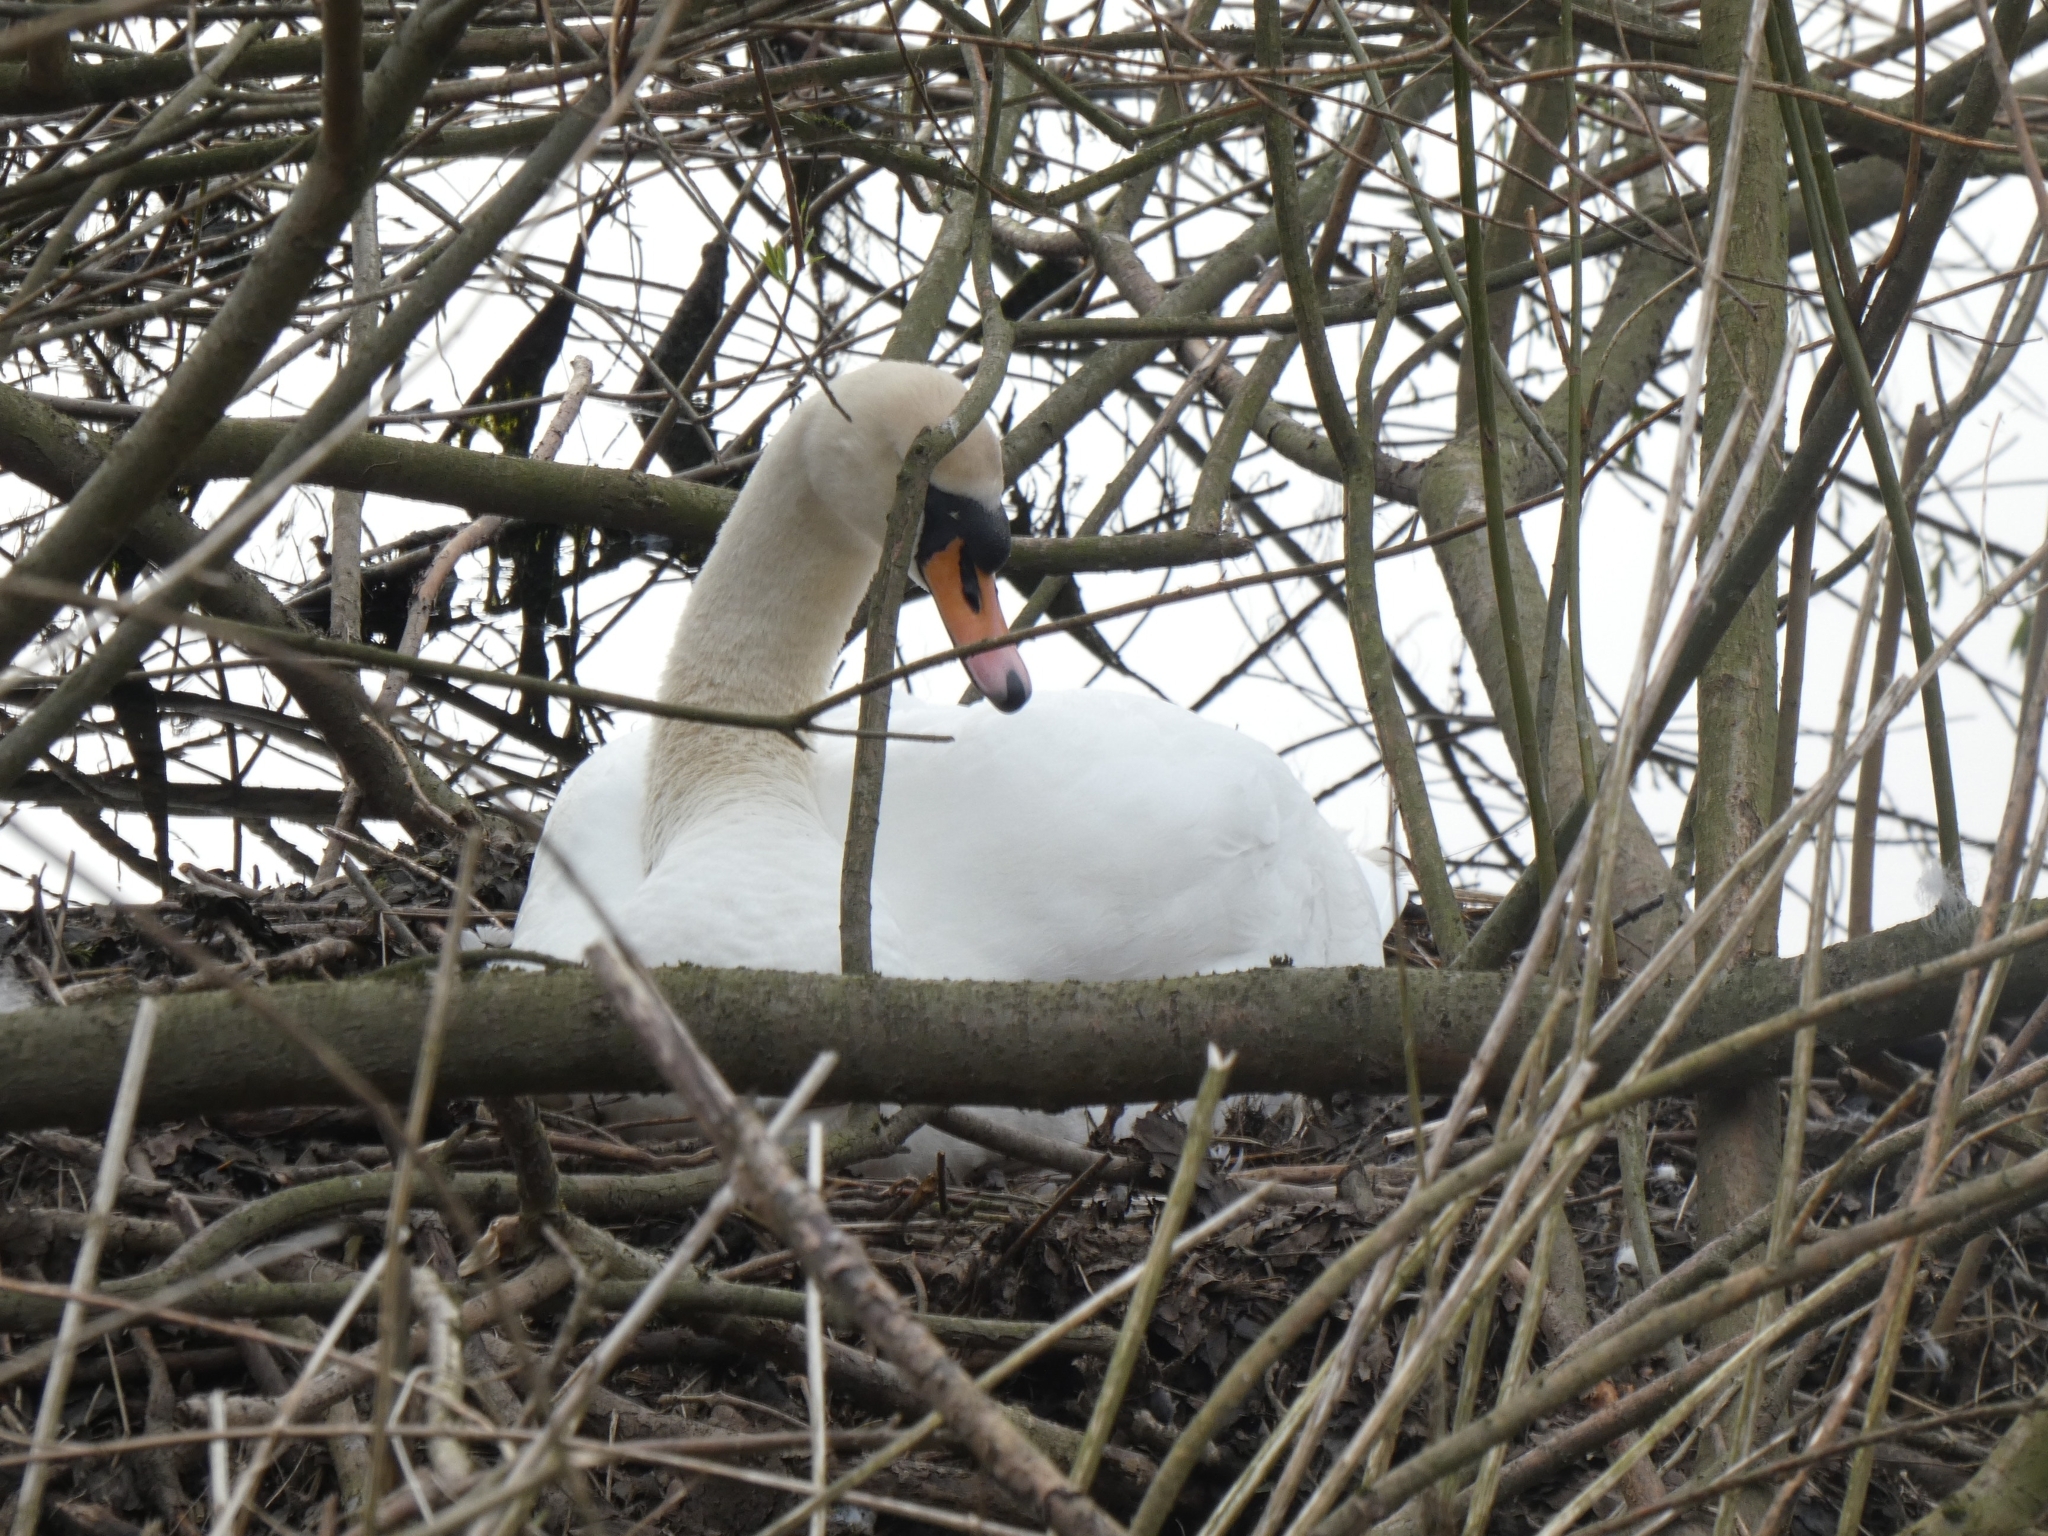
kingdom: Animalia
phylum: Chordata
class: Aves
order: Anseriformes
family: Anatidae
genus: Cygnus
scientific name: Cygnus olor
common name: Mute swan
